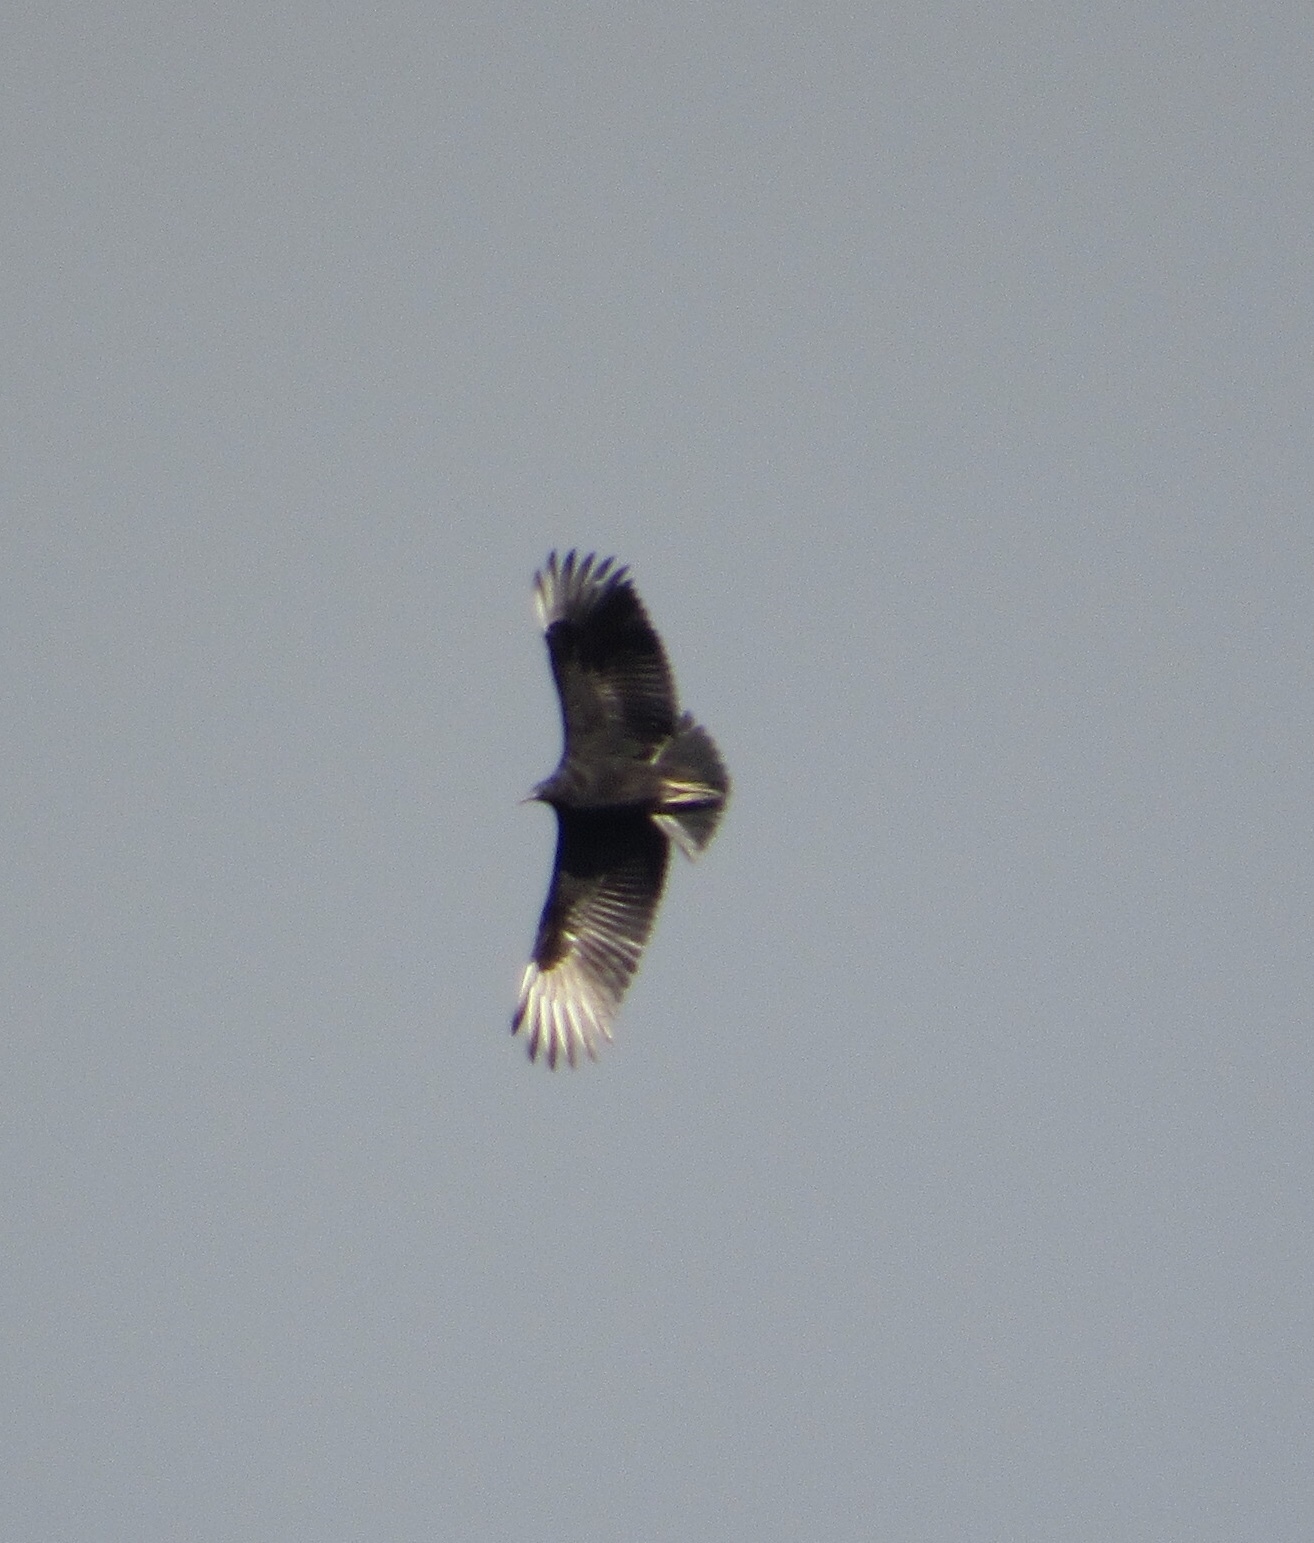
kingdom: Animalia
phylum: Chordata
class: Aves
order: Accipitriformes
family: Cathartidae
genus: Coragyps
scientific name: Coragyps atratus
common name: Black vulture
